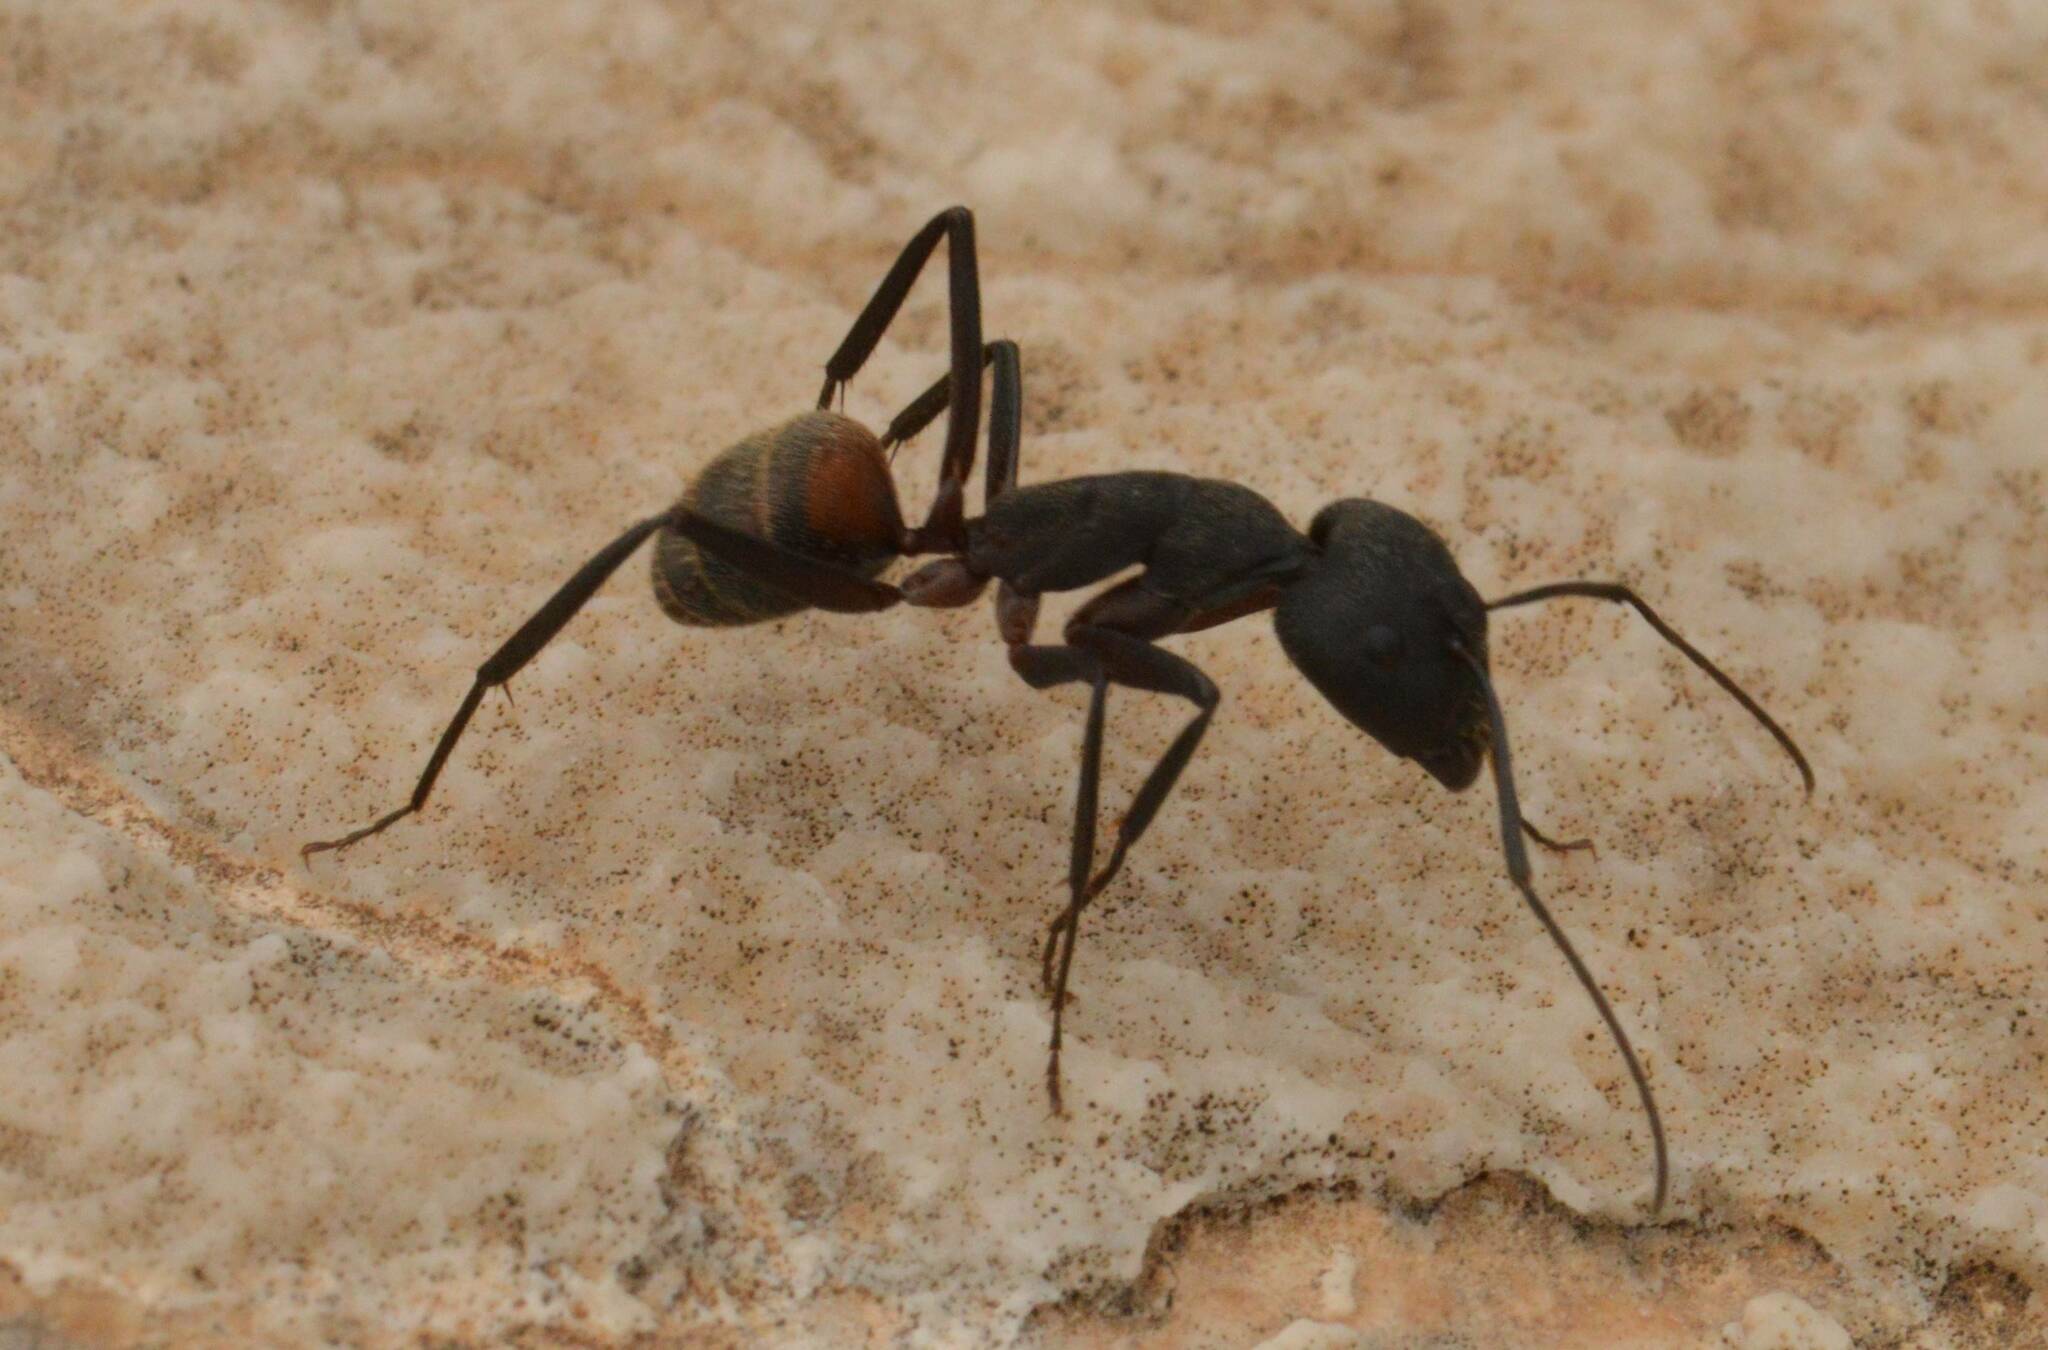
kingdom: Animalia
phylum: Arthropoda
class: Insecta
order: Hymenoptera
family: Formicidae
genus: Camponotus
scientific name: Camponotus cruentatus
